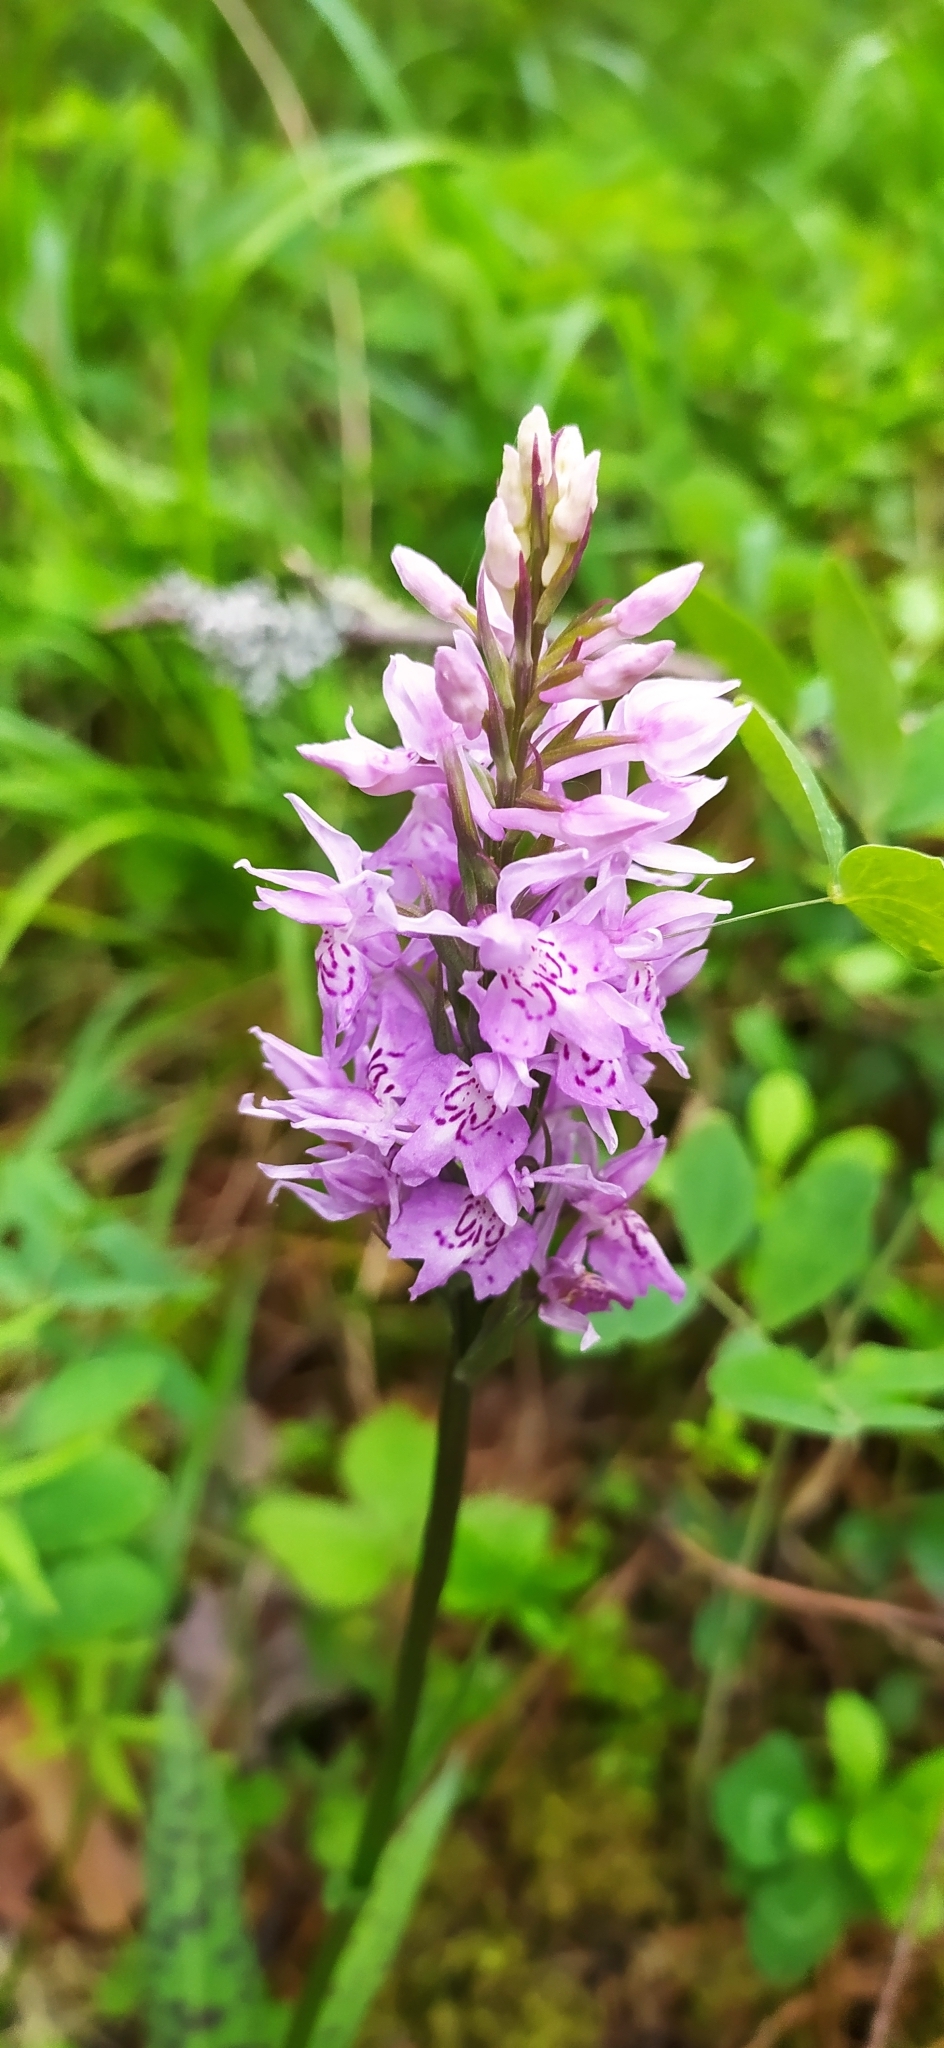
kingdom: Plantae
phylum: Tracheophyta
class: Liliopsida
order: Asparagales
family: Orchidaceae
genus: Dactylorhiza
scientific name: Dactylorhiza maculata
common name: Heath spotted-orchid
